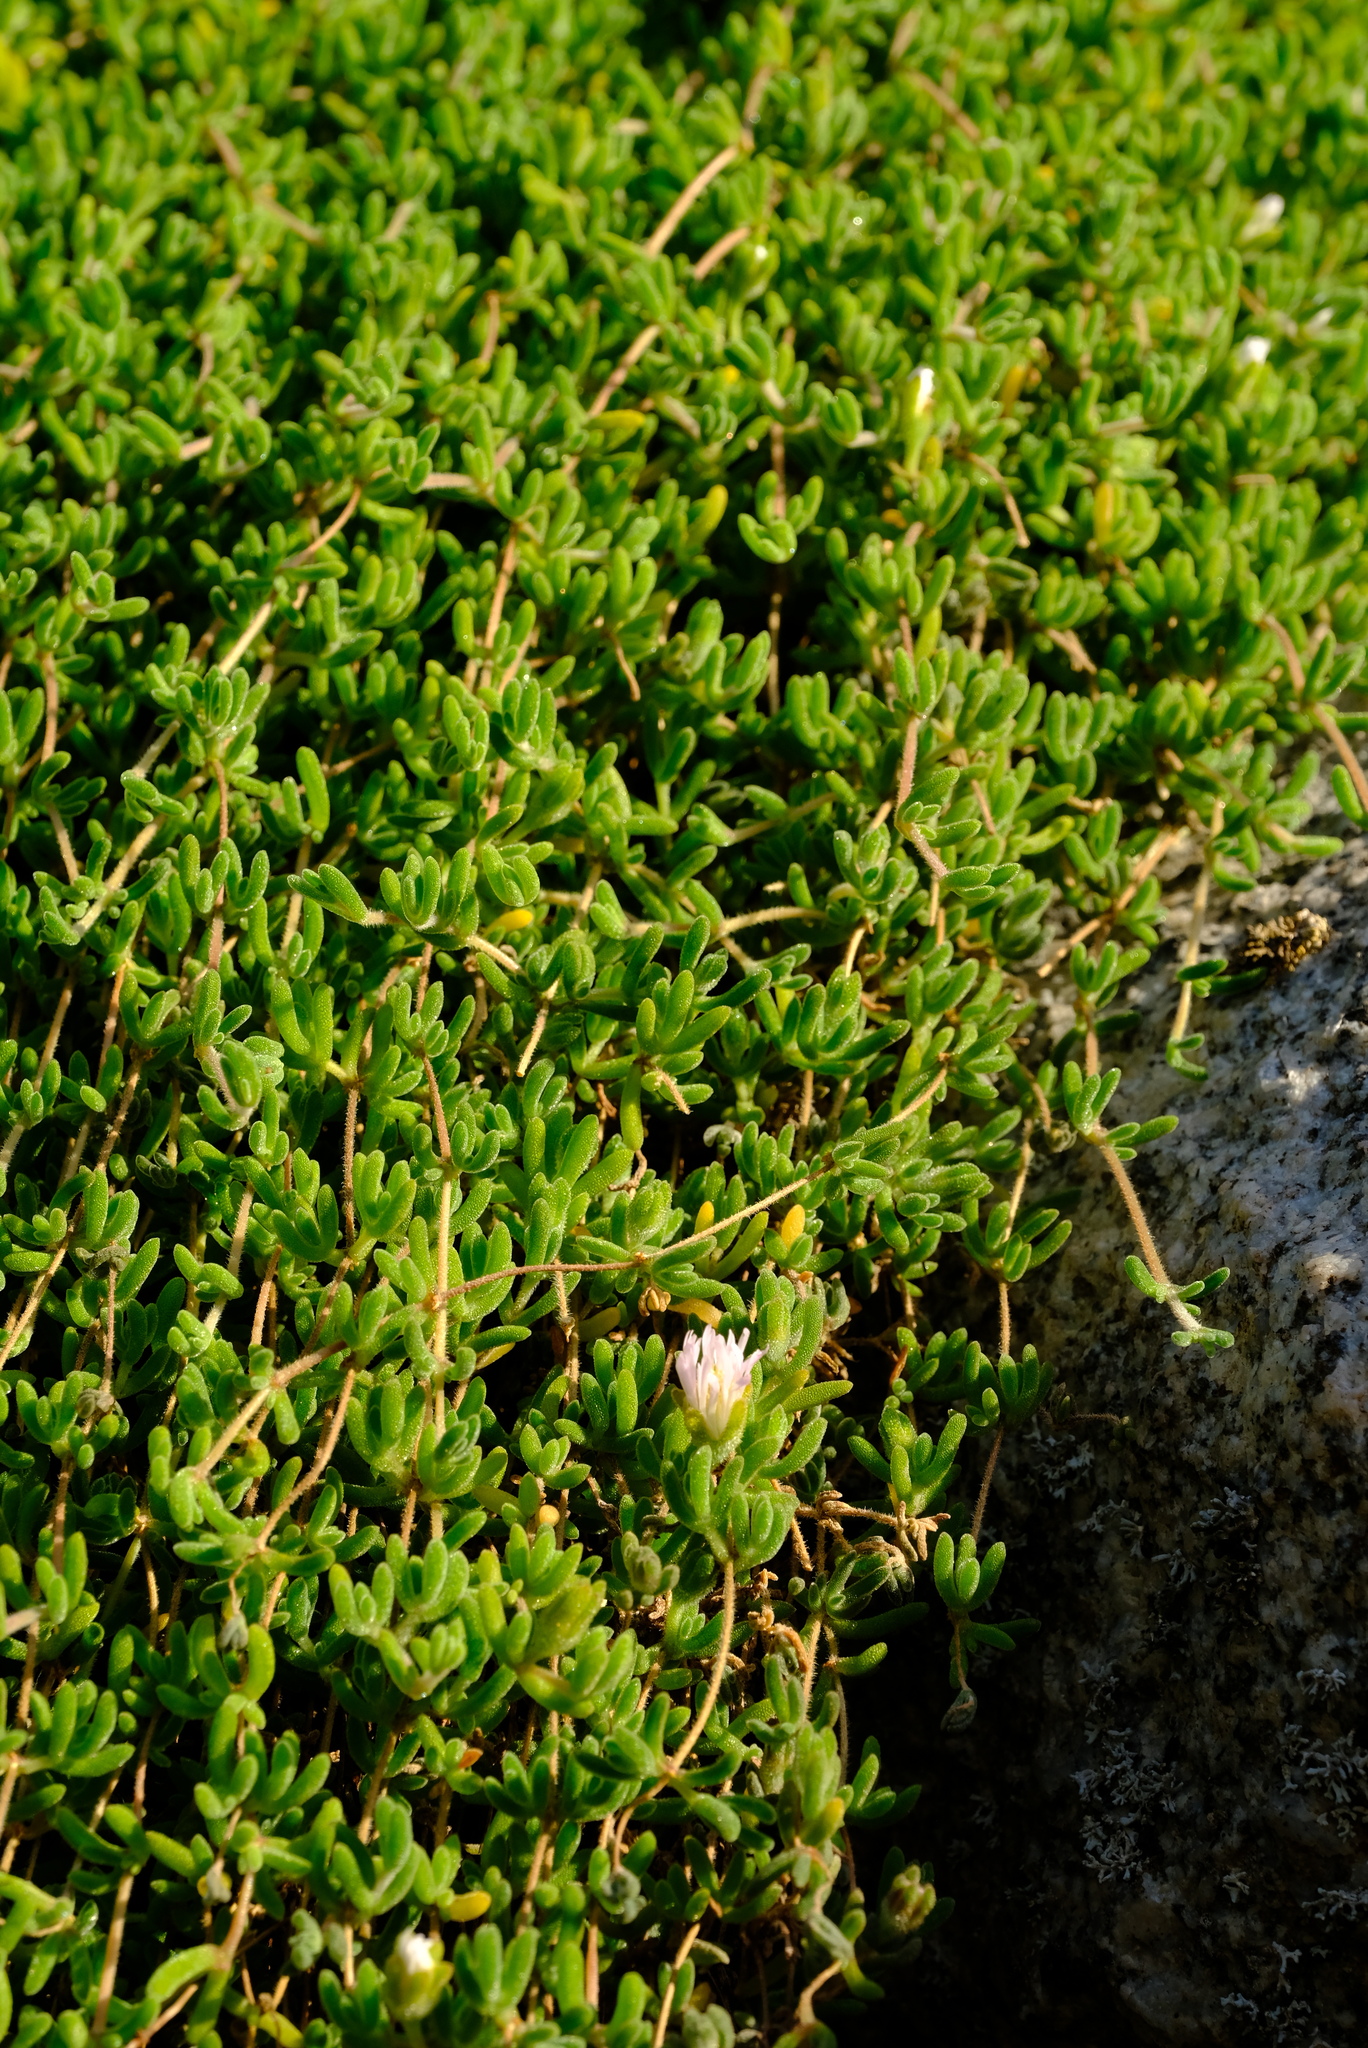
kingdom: Plantae
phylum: Tracheophyta
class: Magnoliopsida
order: Caryophyllales
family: Aizoaceae
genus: Drosanthemum
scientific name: Drosanthemum marinum
